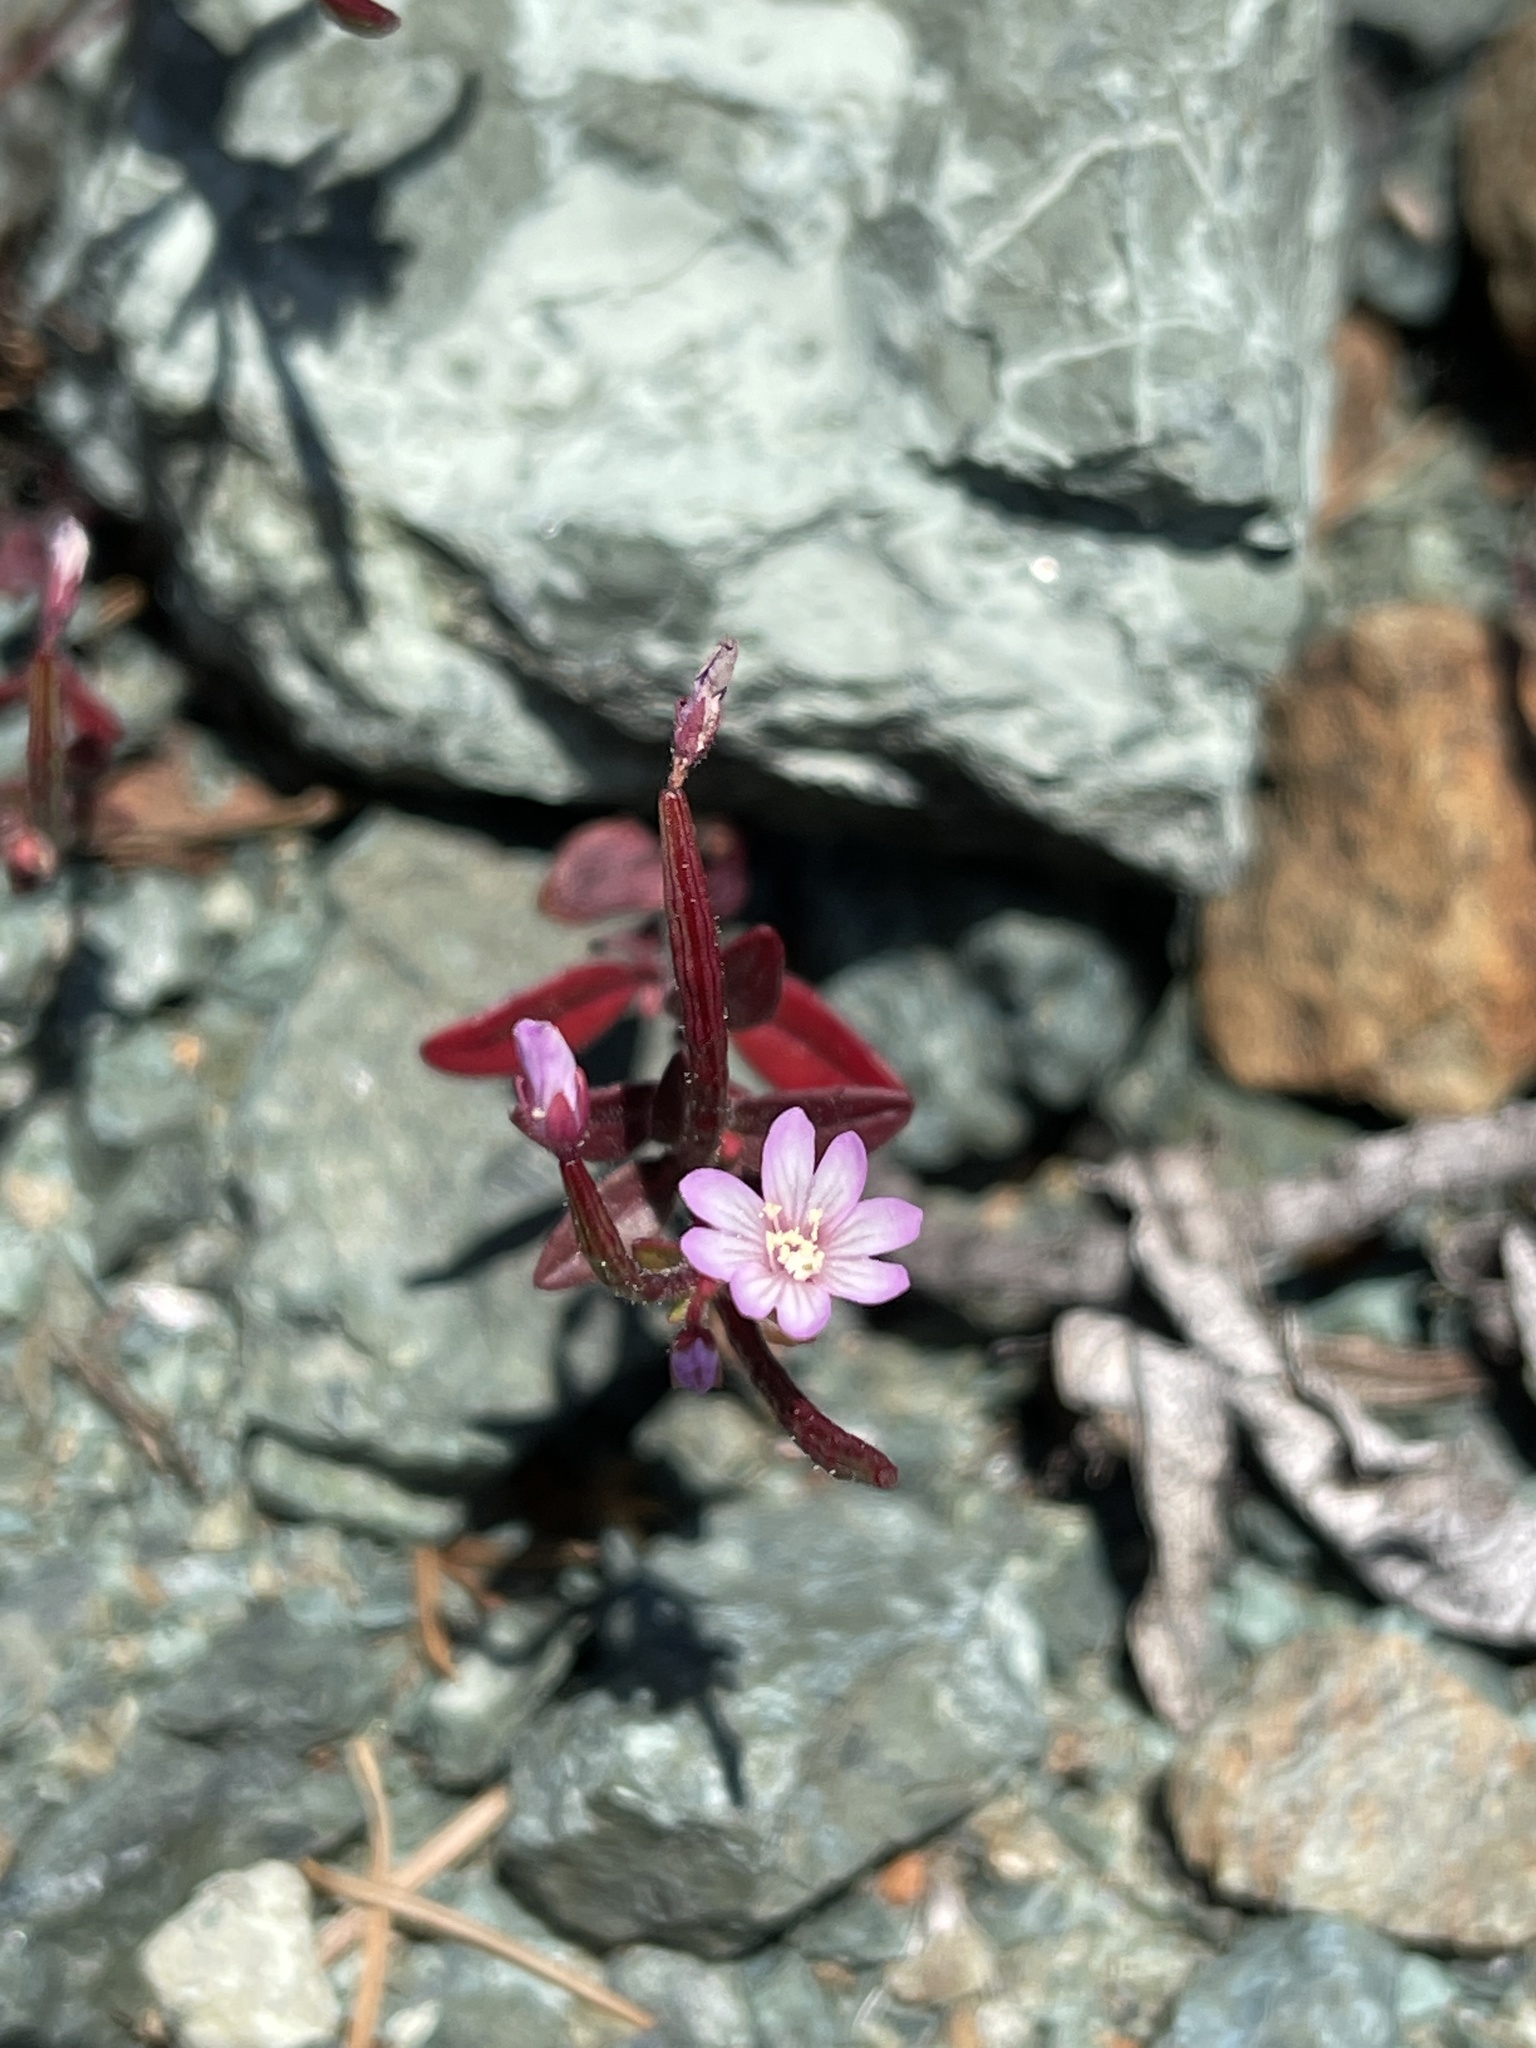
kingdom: Plantae
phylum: Tracheophyta
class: Magnoliopsida
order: Myrtales
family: Onagraceae
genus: Epilobium
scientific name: Epilobium minutum
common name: Chaparral willowherb
